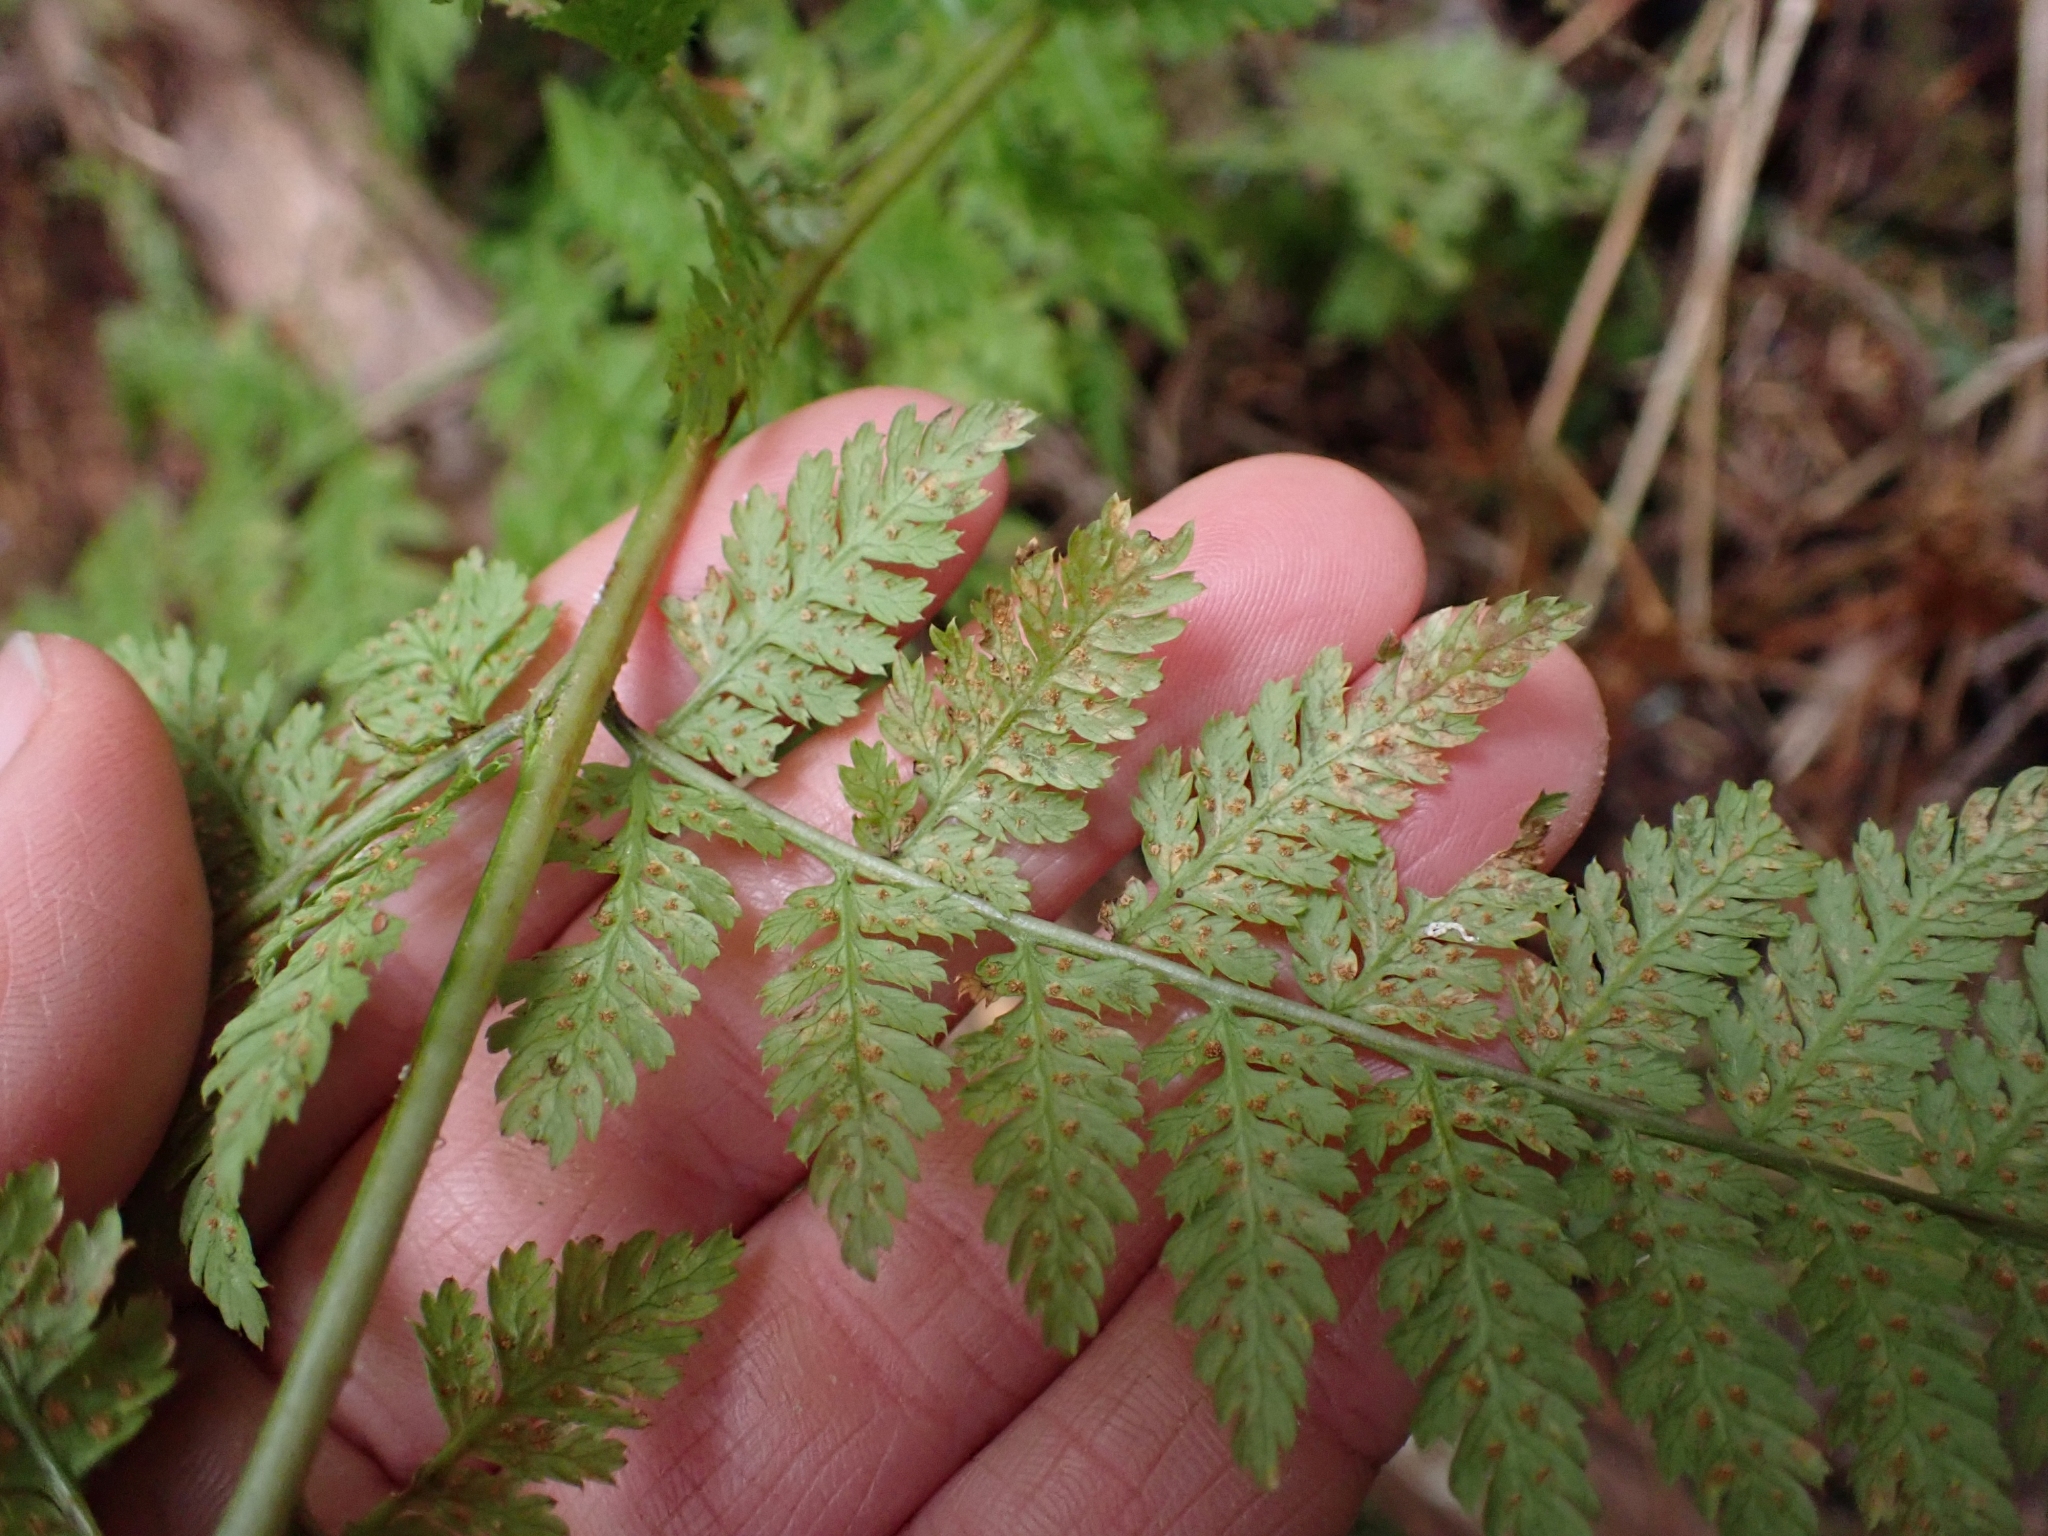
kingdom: Plantae
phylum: Tracheophyta
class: Polypodiopsida
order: Polypodiales
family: Dryopteridaceae
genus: Dryopteris
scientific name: Dryopteris expansa
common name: Northern buckler fern
